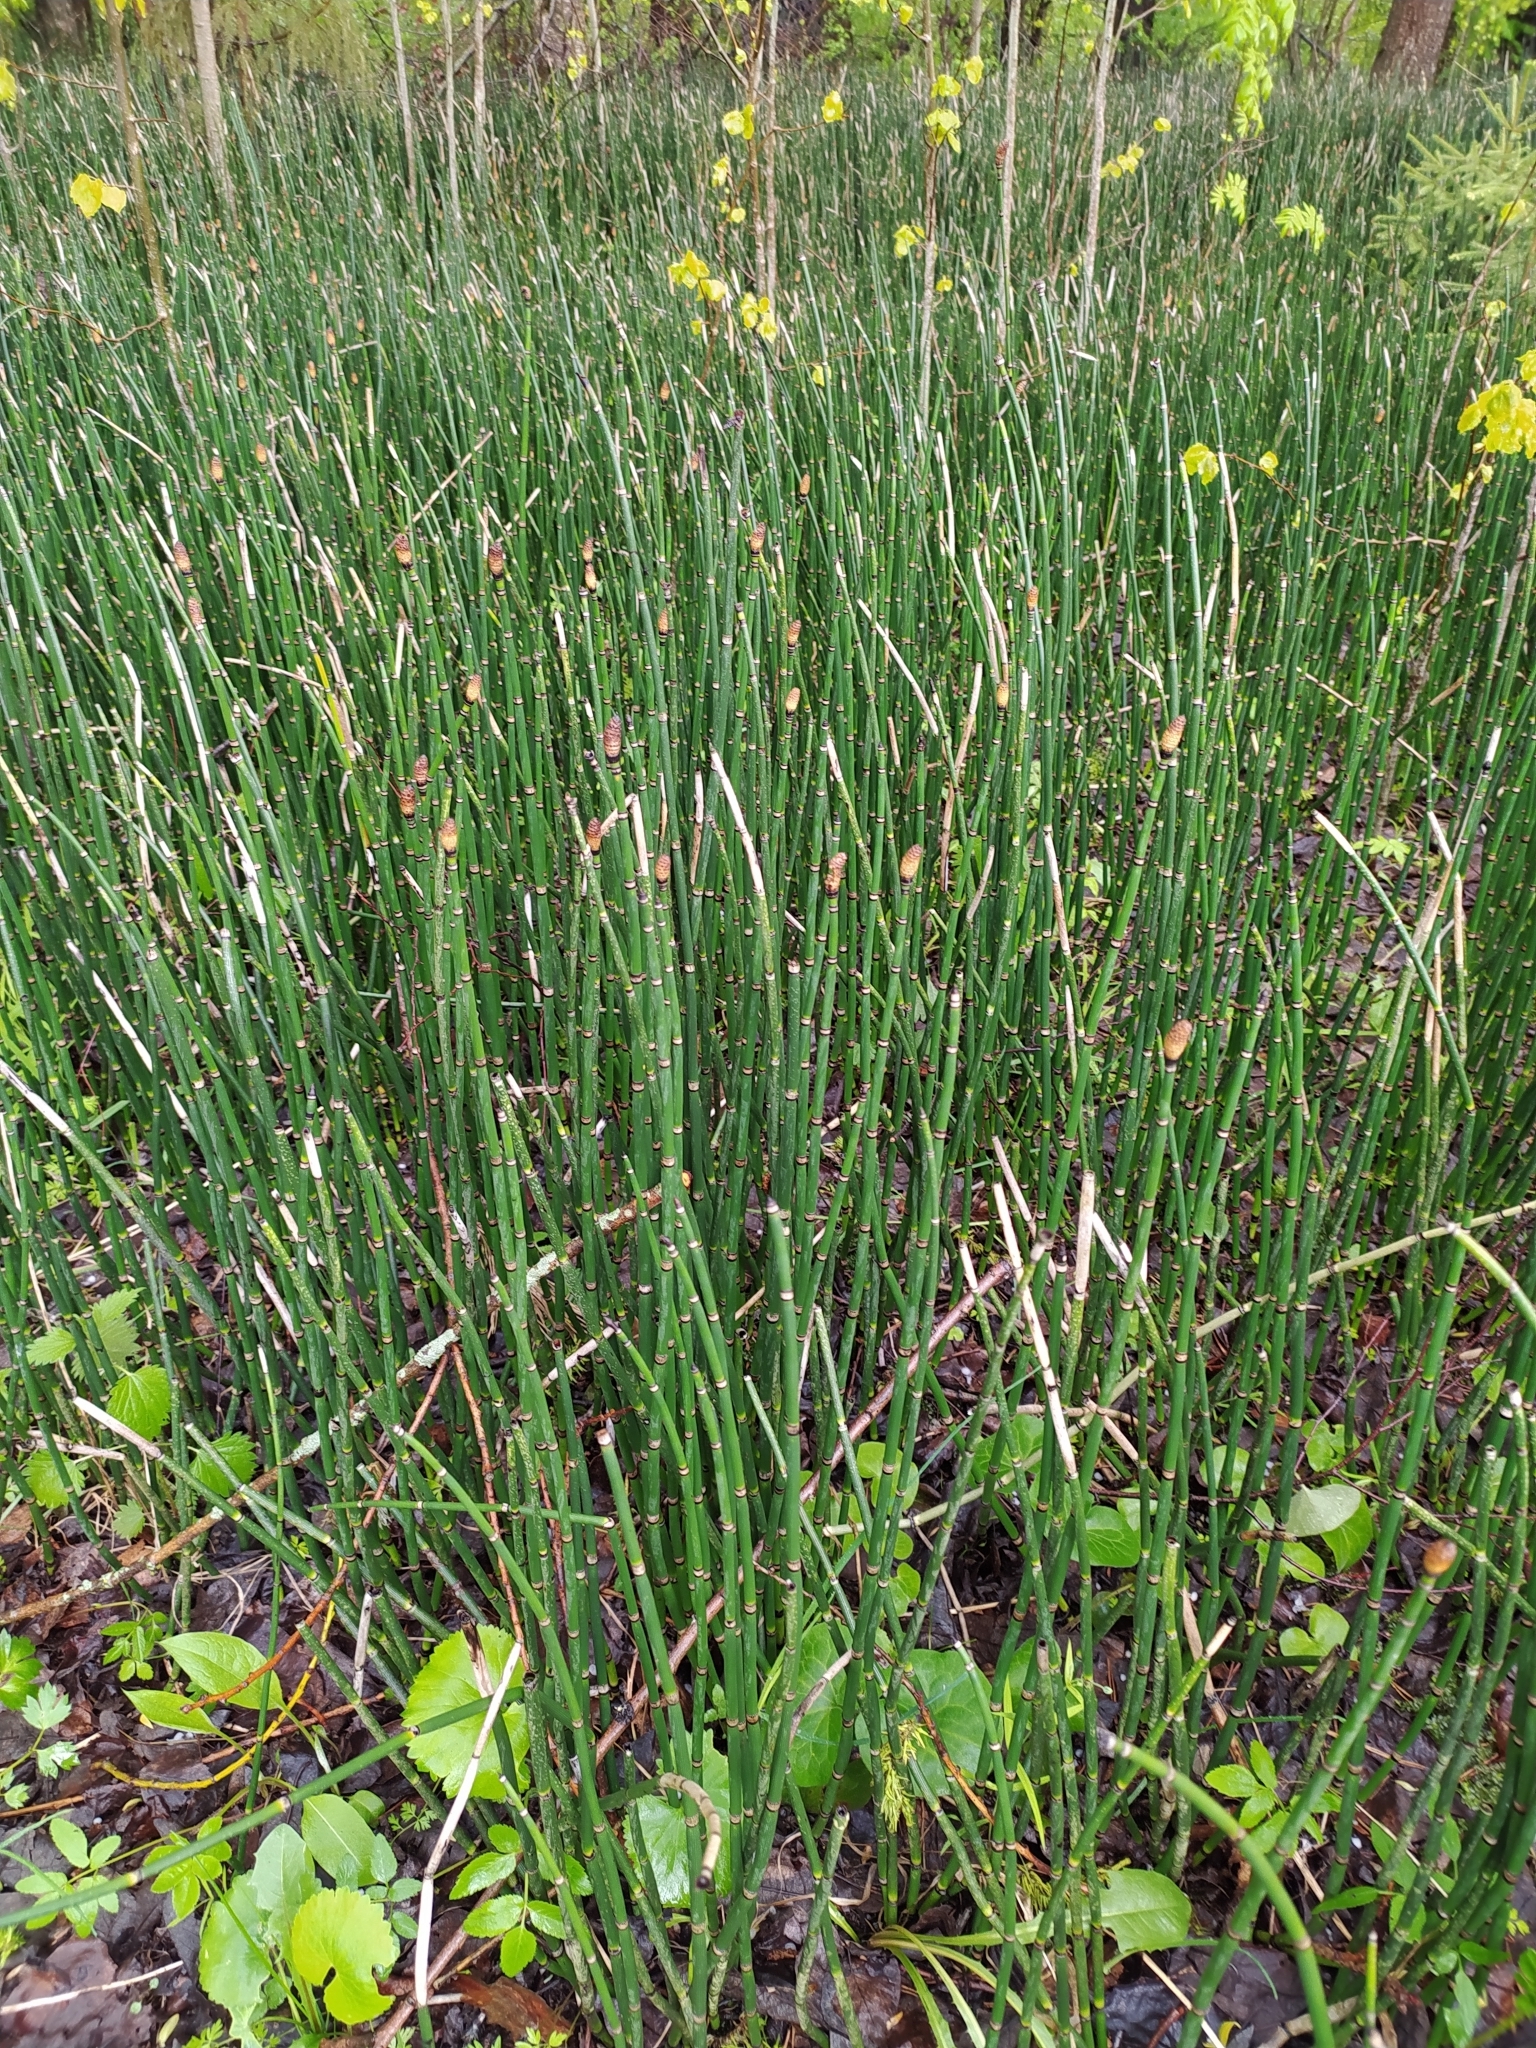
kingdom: Plantae
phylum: Tracheophyta
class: Polypodiopsida
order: Equisetales
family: Equisetaceae
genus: Equisetum
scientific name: Equisetum hyemale
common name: Rough horsetail
